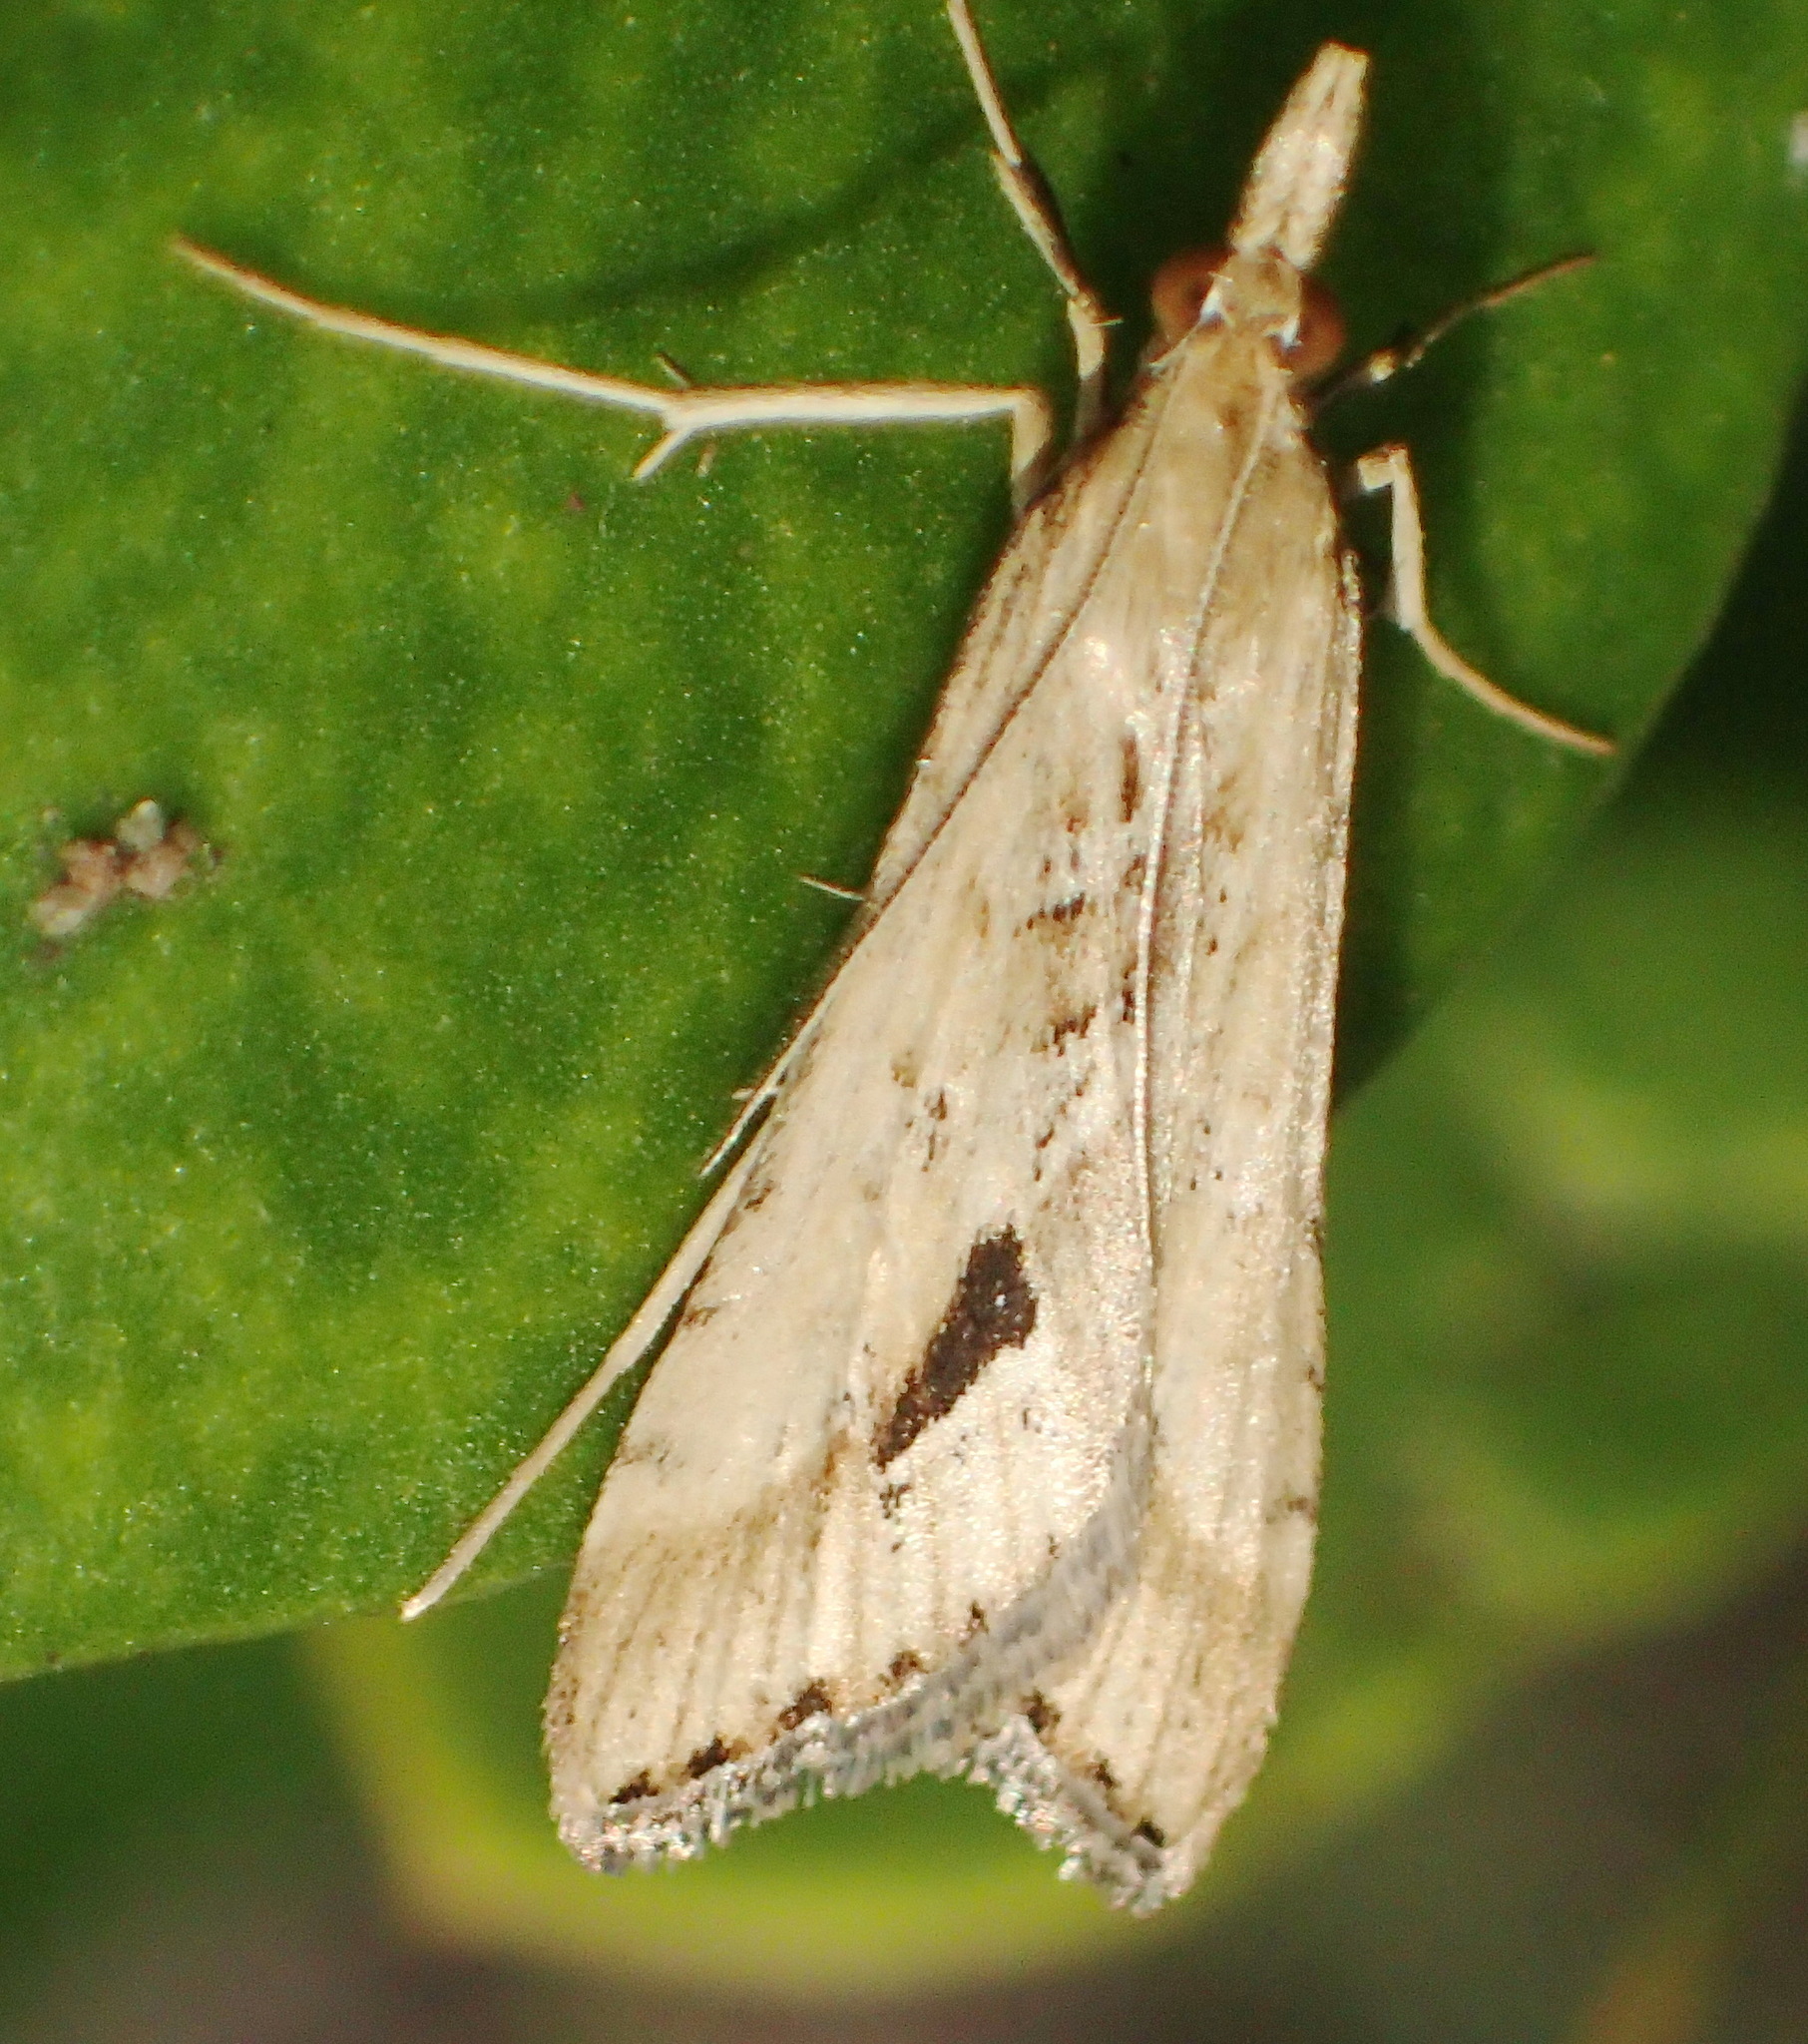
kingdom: Animalia
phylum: Arthropoda
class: Insecta
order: Lepidoptera
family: Crambidae
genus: Diasemia
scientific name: Diasemia monostigma
